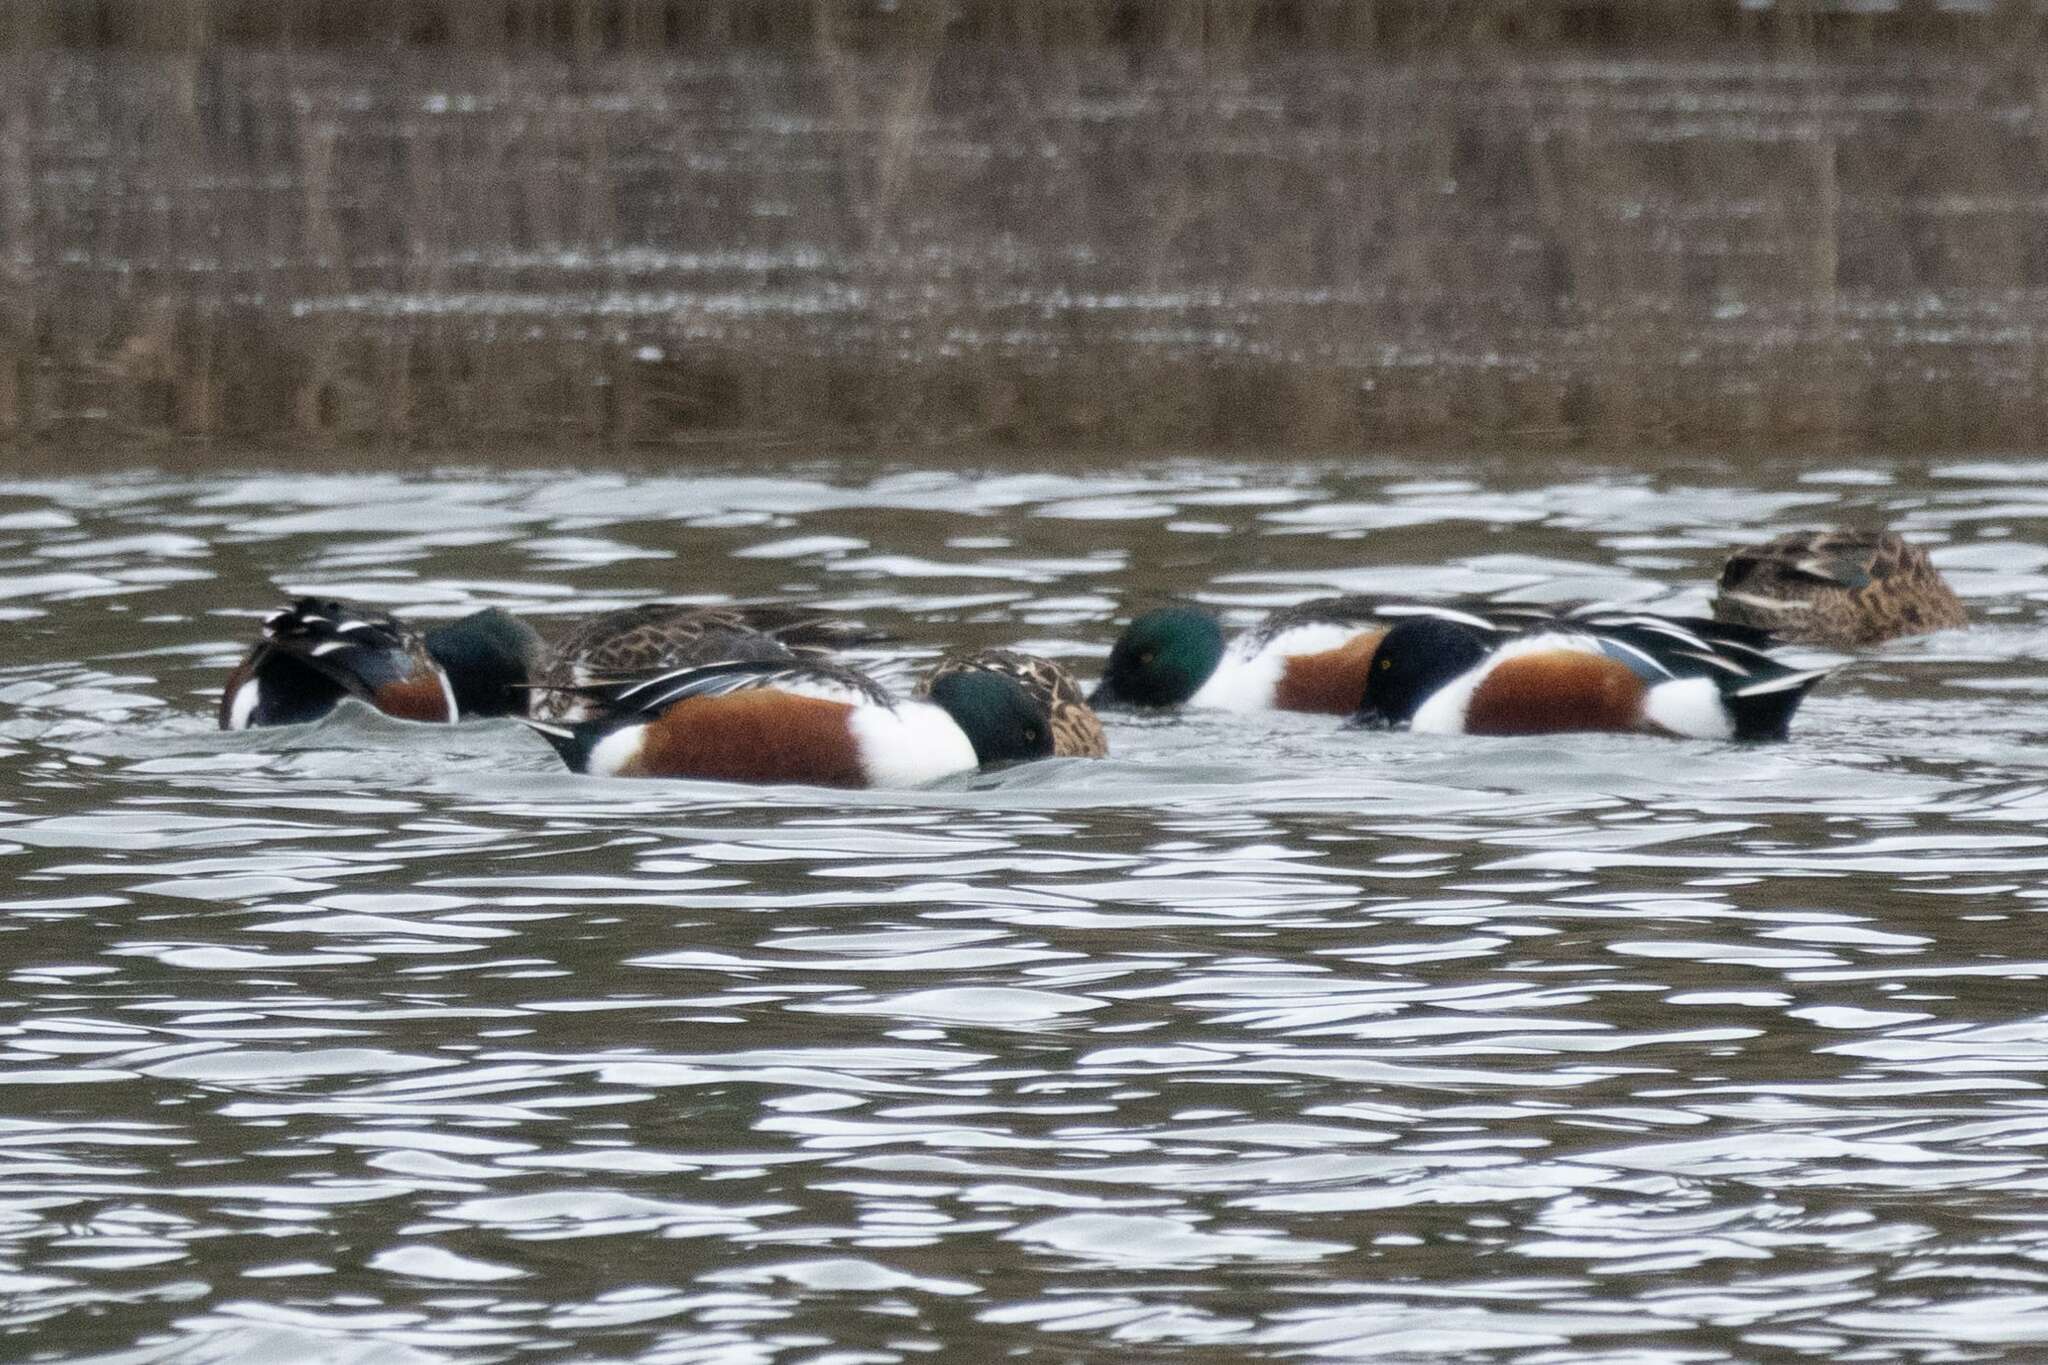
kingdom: Animalia
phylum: Chordata
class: Aves
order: Anseriformes
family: Anatidae
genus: Spatula
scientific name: Spatula clypeata
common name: Northern shoveler
